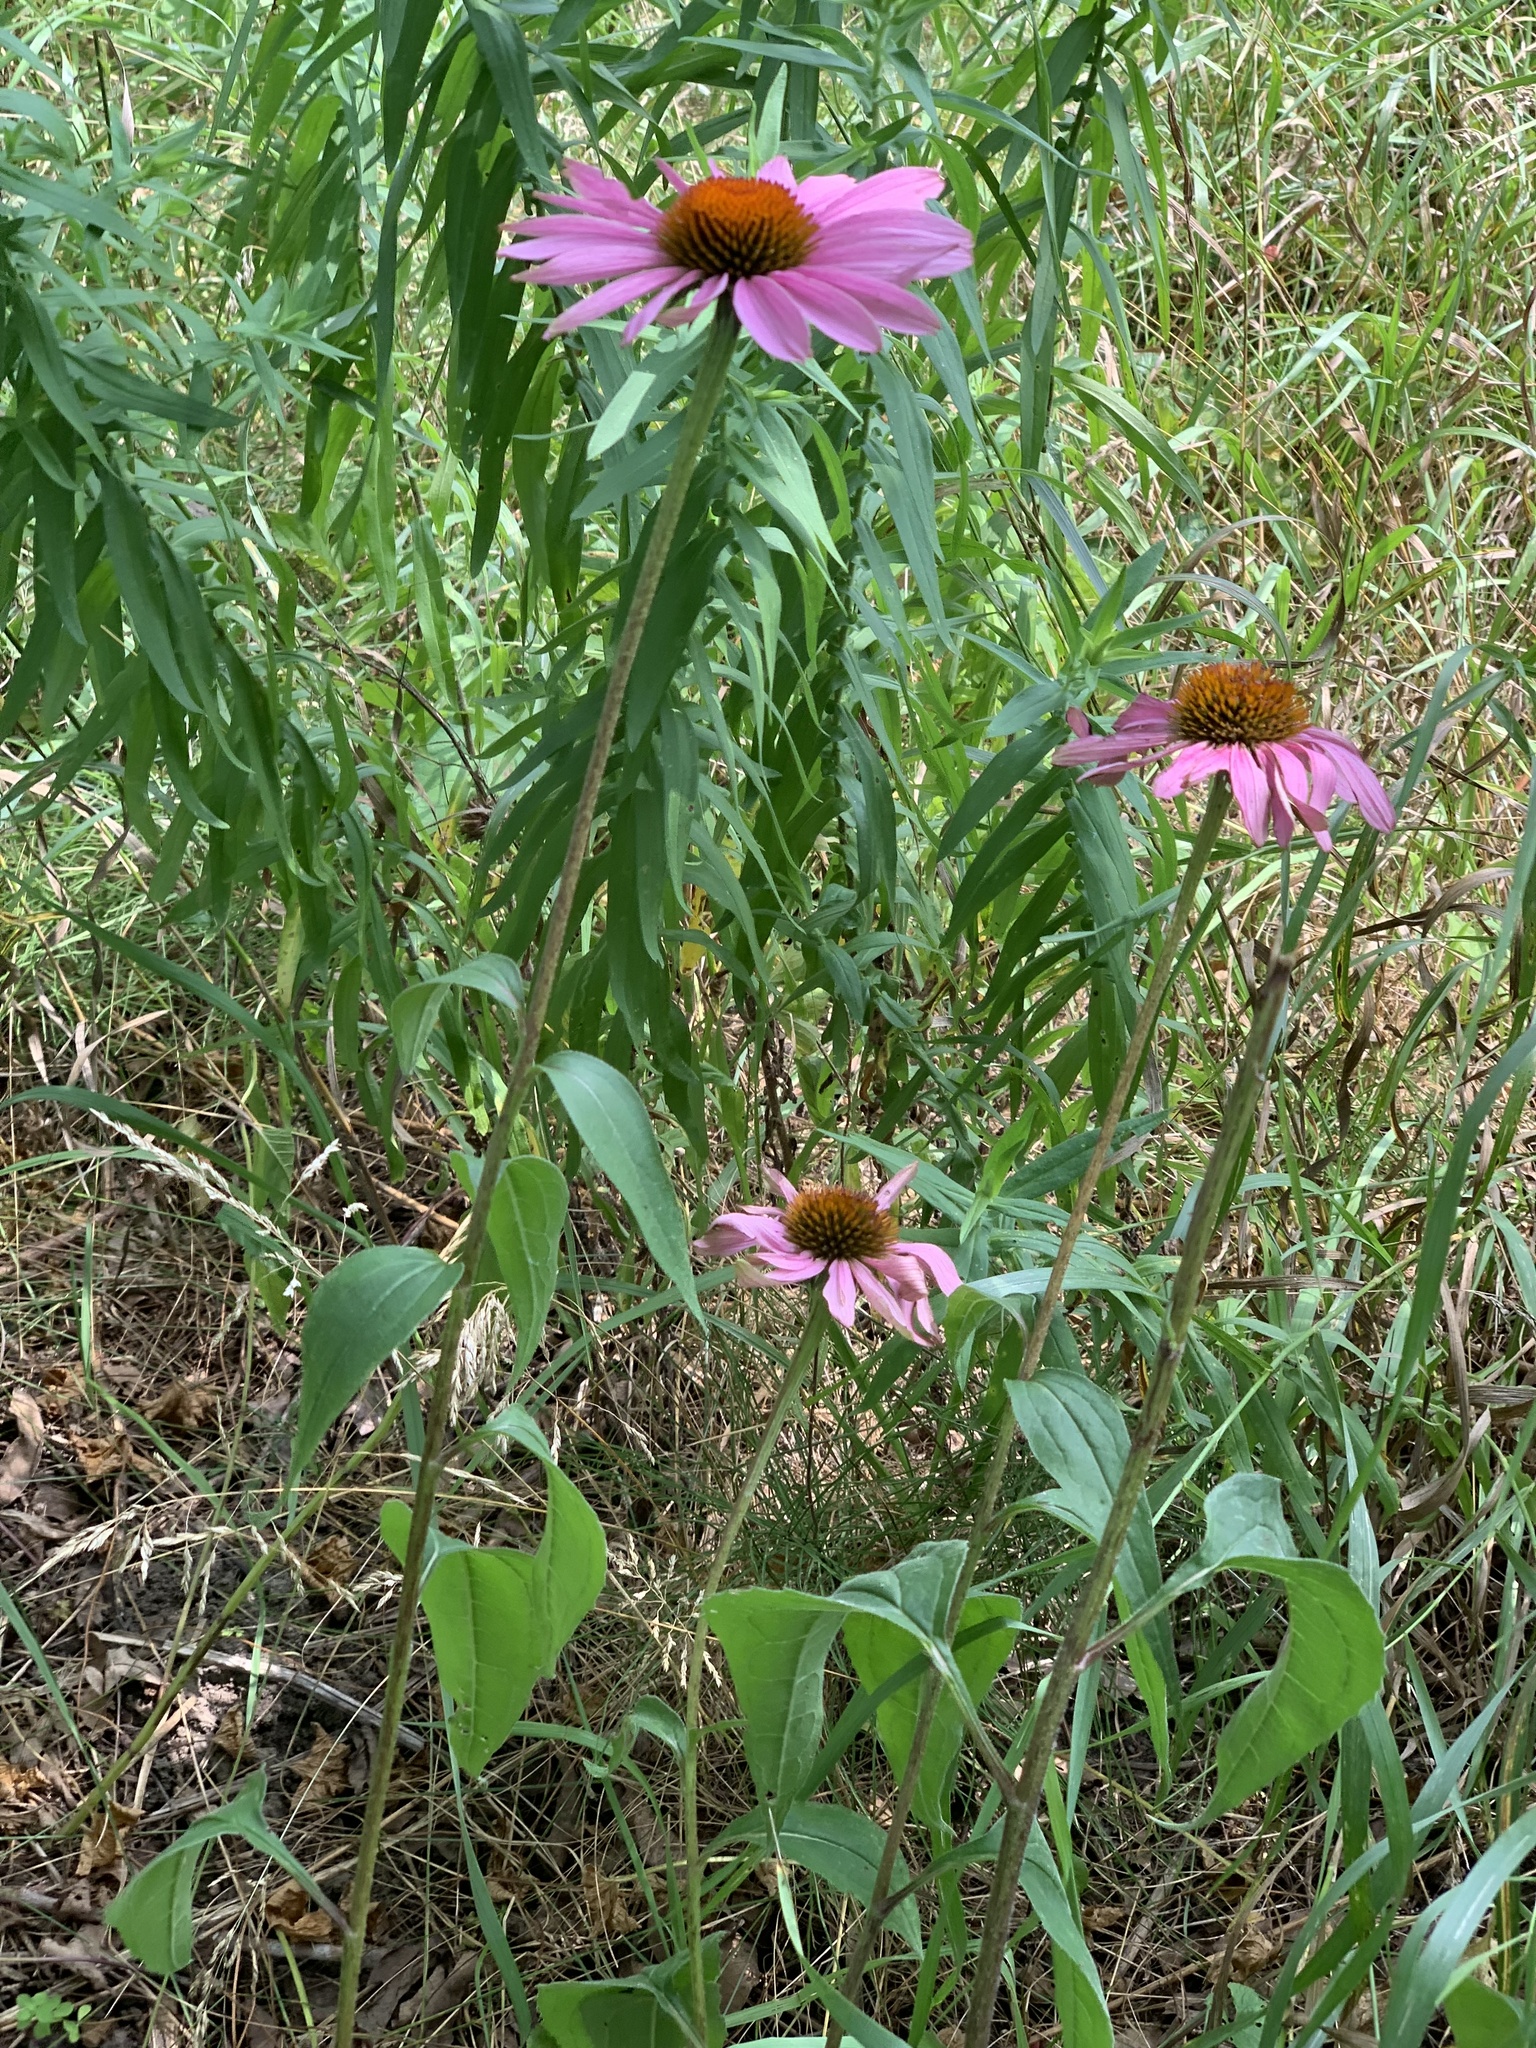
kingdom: Plantae
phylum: Tracheophyta
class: Magnoliopsida
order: Asterales
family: Asteraceae
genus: Echinacea
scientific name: Echinacea purpurea
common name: Broad-leaved purple coneflower
